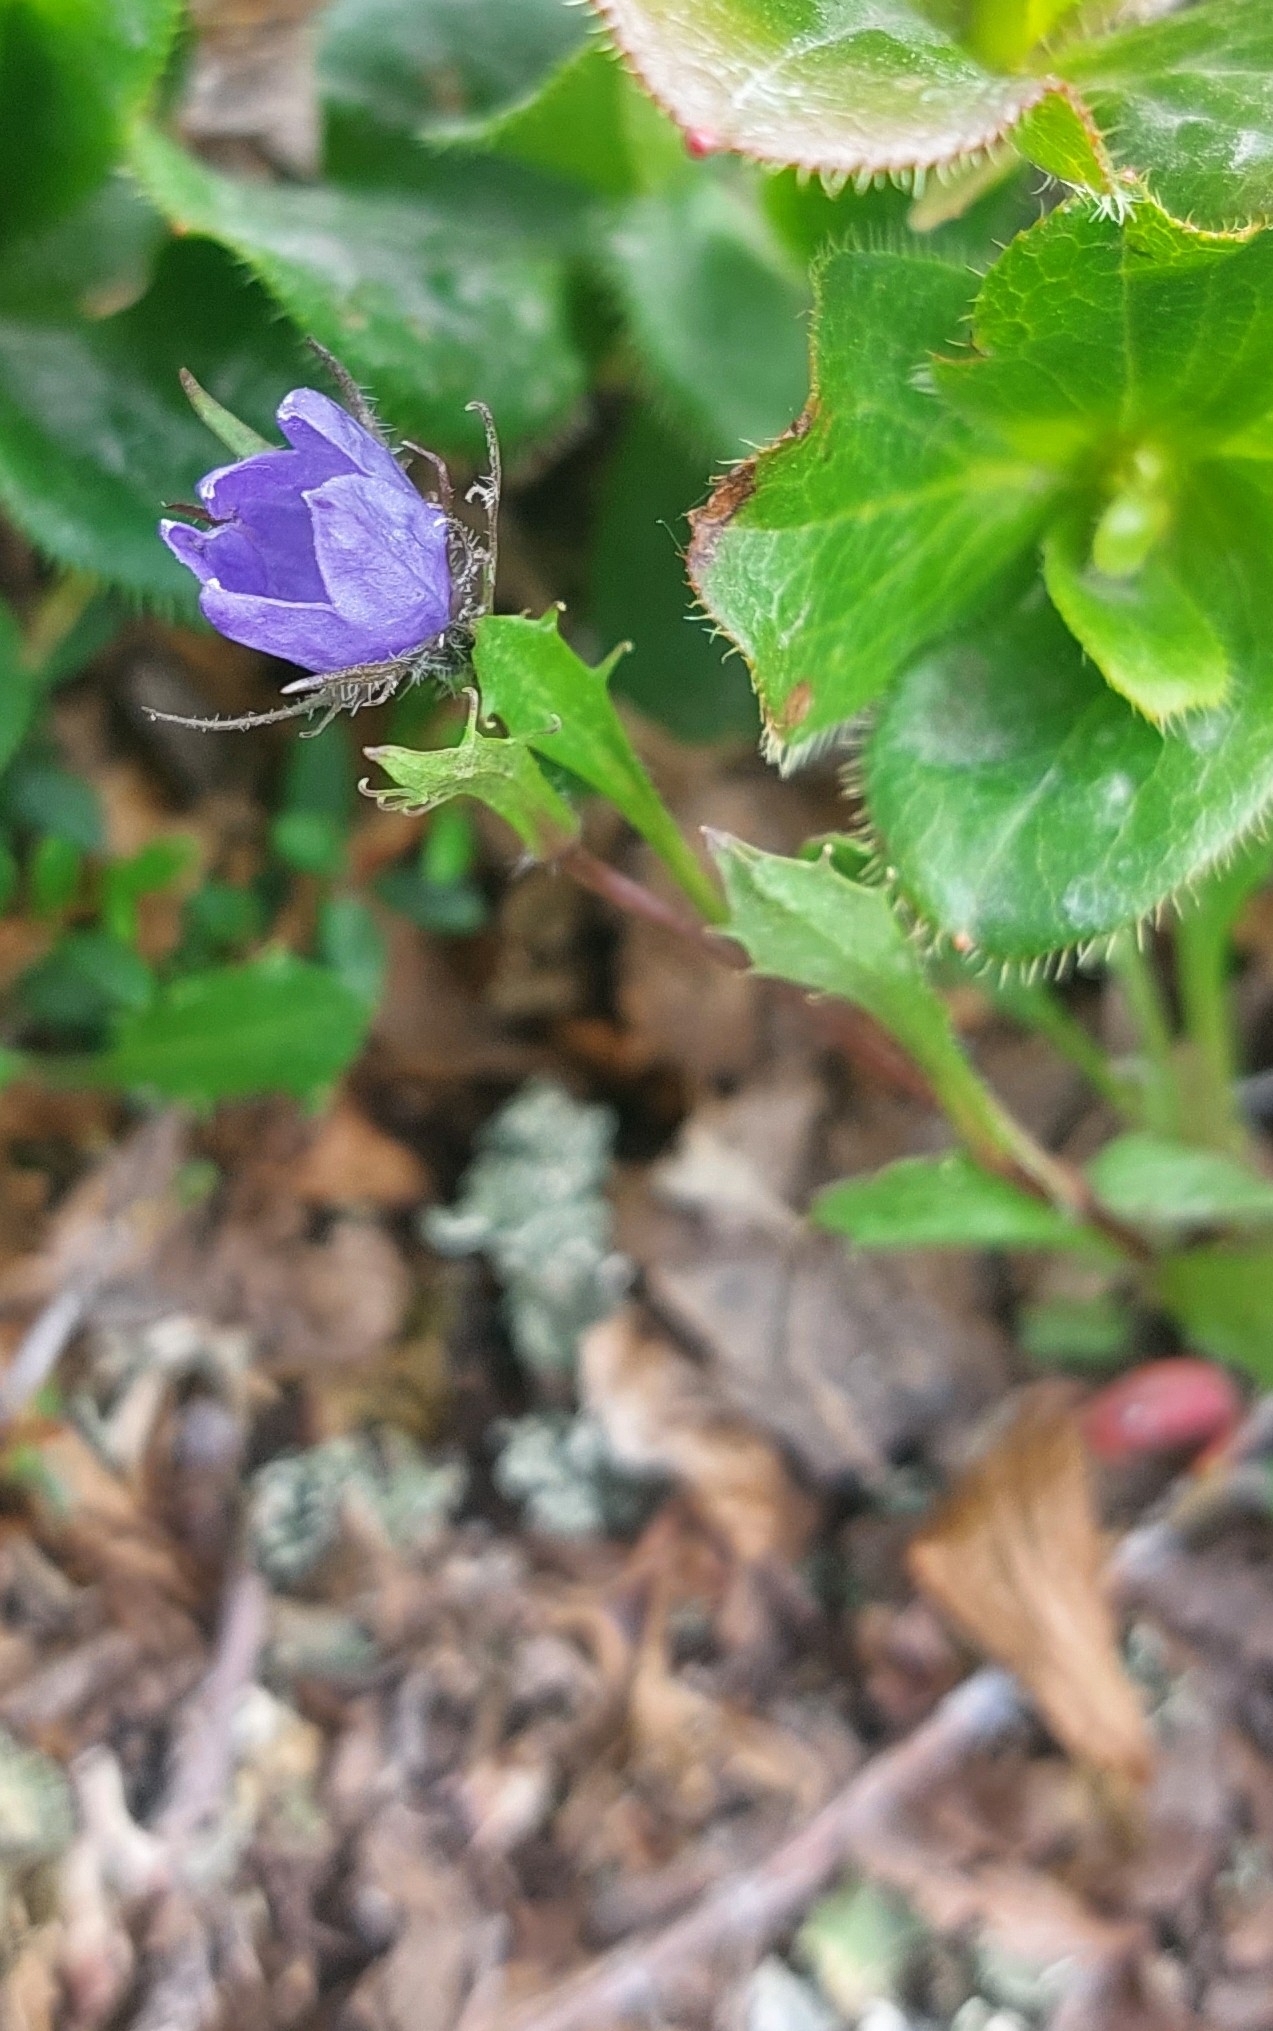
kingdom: Plantae
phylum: Tracheophyta
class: Magnoliopsida
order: Asterales
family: Campanulaceae
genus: Campanula
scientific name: Campanula lasiocarpa
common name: Mountain harebell
